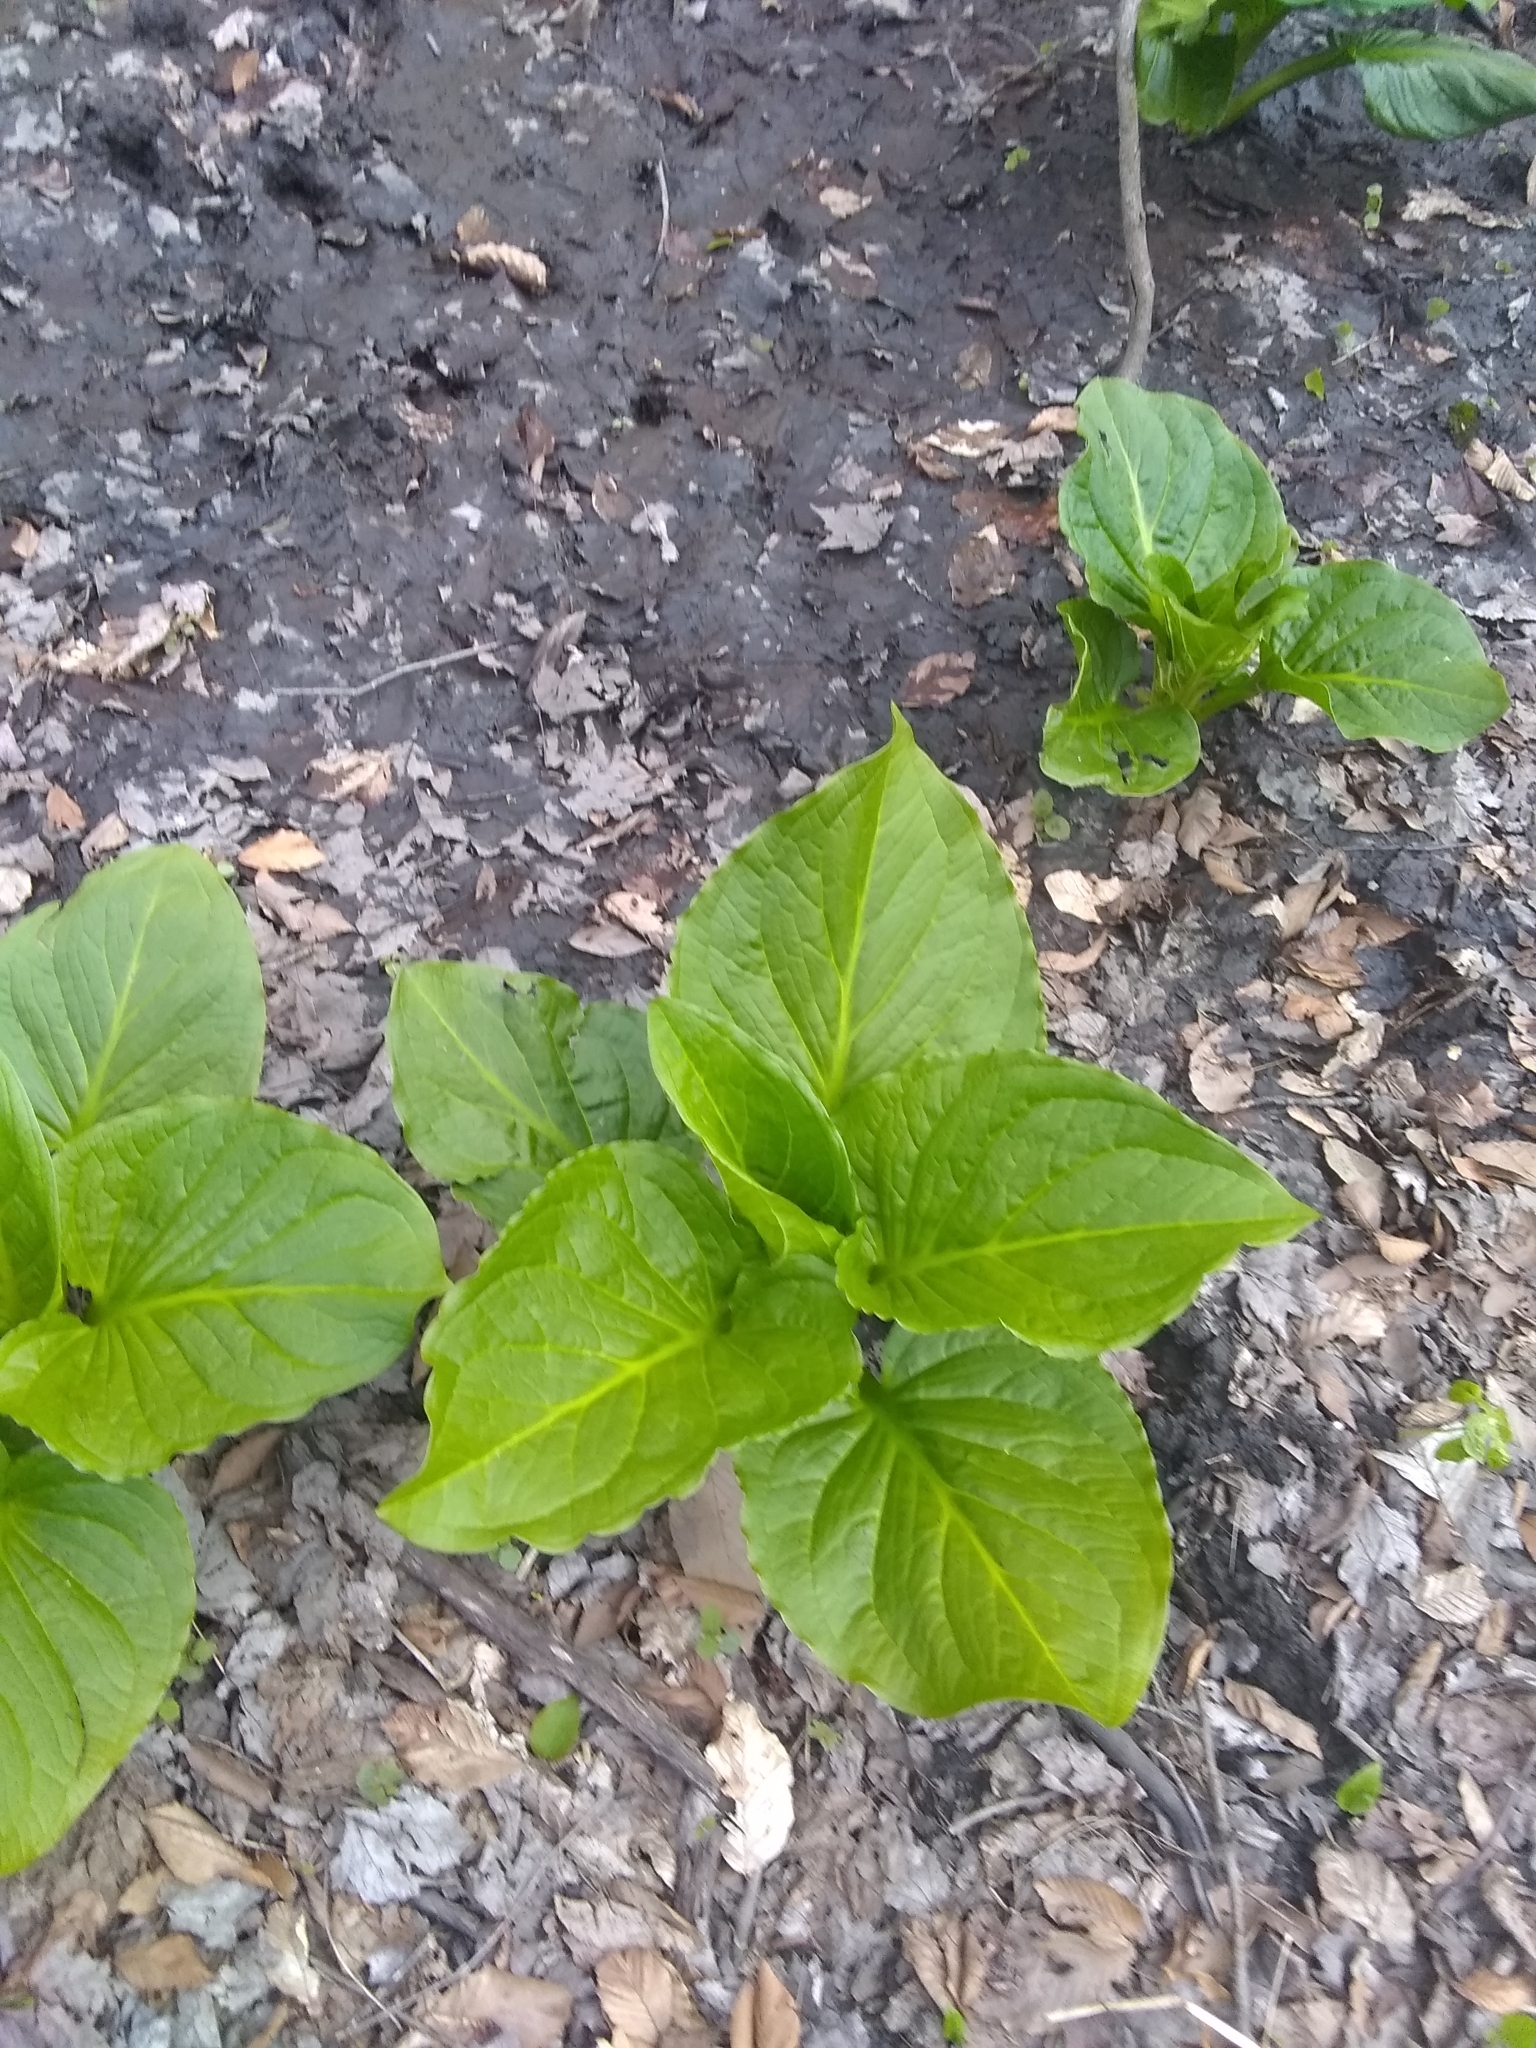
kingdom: Plantae
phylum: Tracheophyta
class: Liliopsida
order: Alismatales
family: Araceae
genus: Symplocarpus
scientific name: Symplocarpus foetidus
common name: Eastern skunk cabbage
